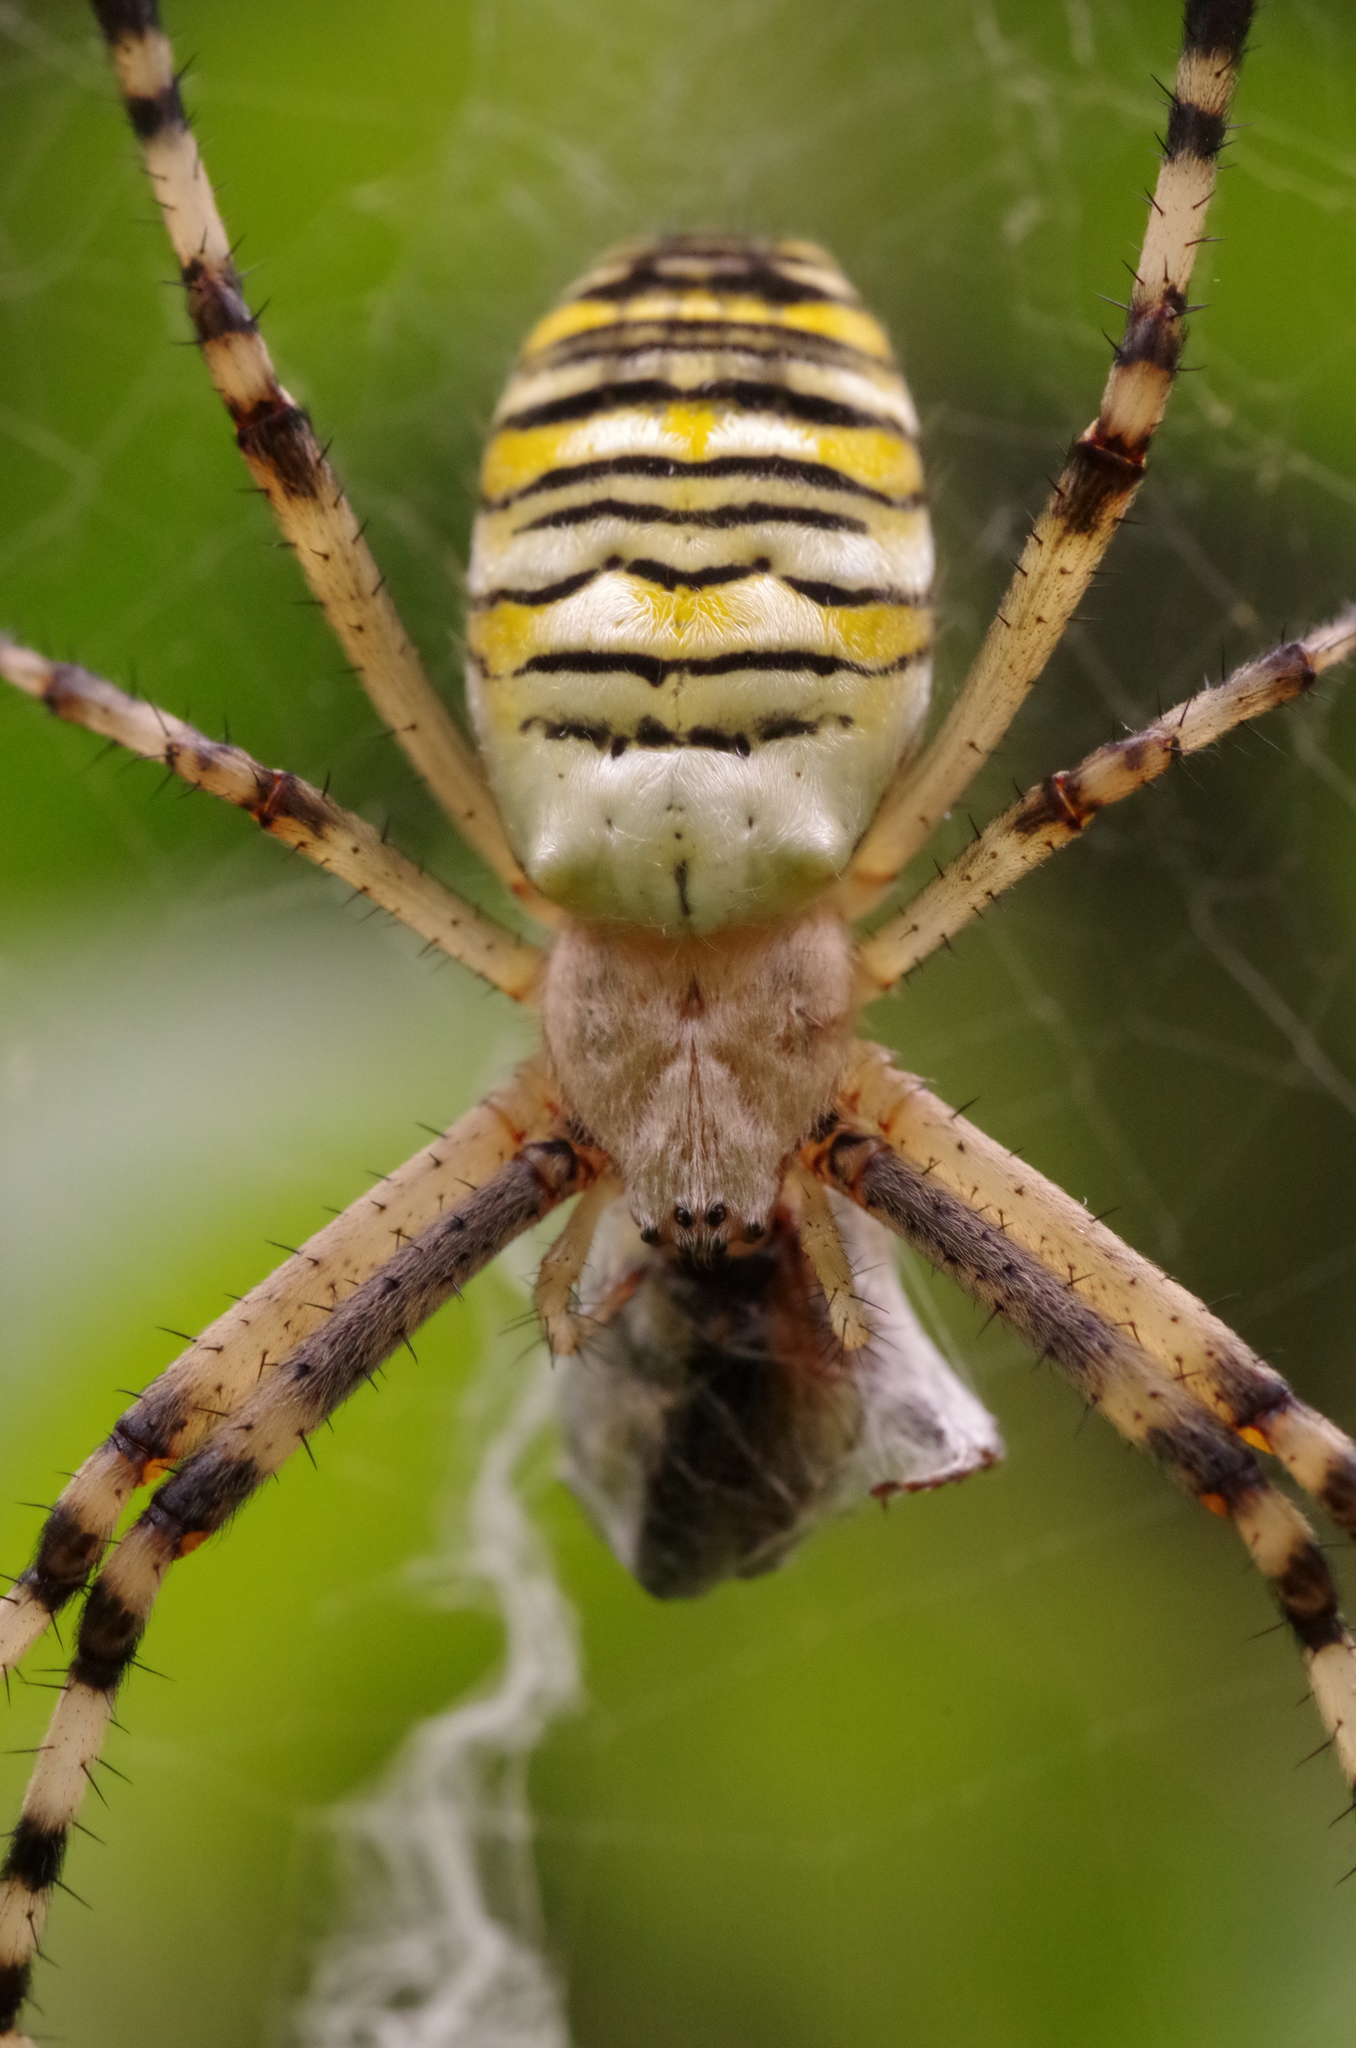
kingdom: Animalia
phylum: Arthropoda
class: Arachnida
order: Araneae
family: Araneidae
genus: Argiope
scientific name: Argiope bruennichi
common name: Wasp spider
